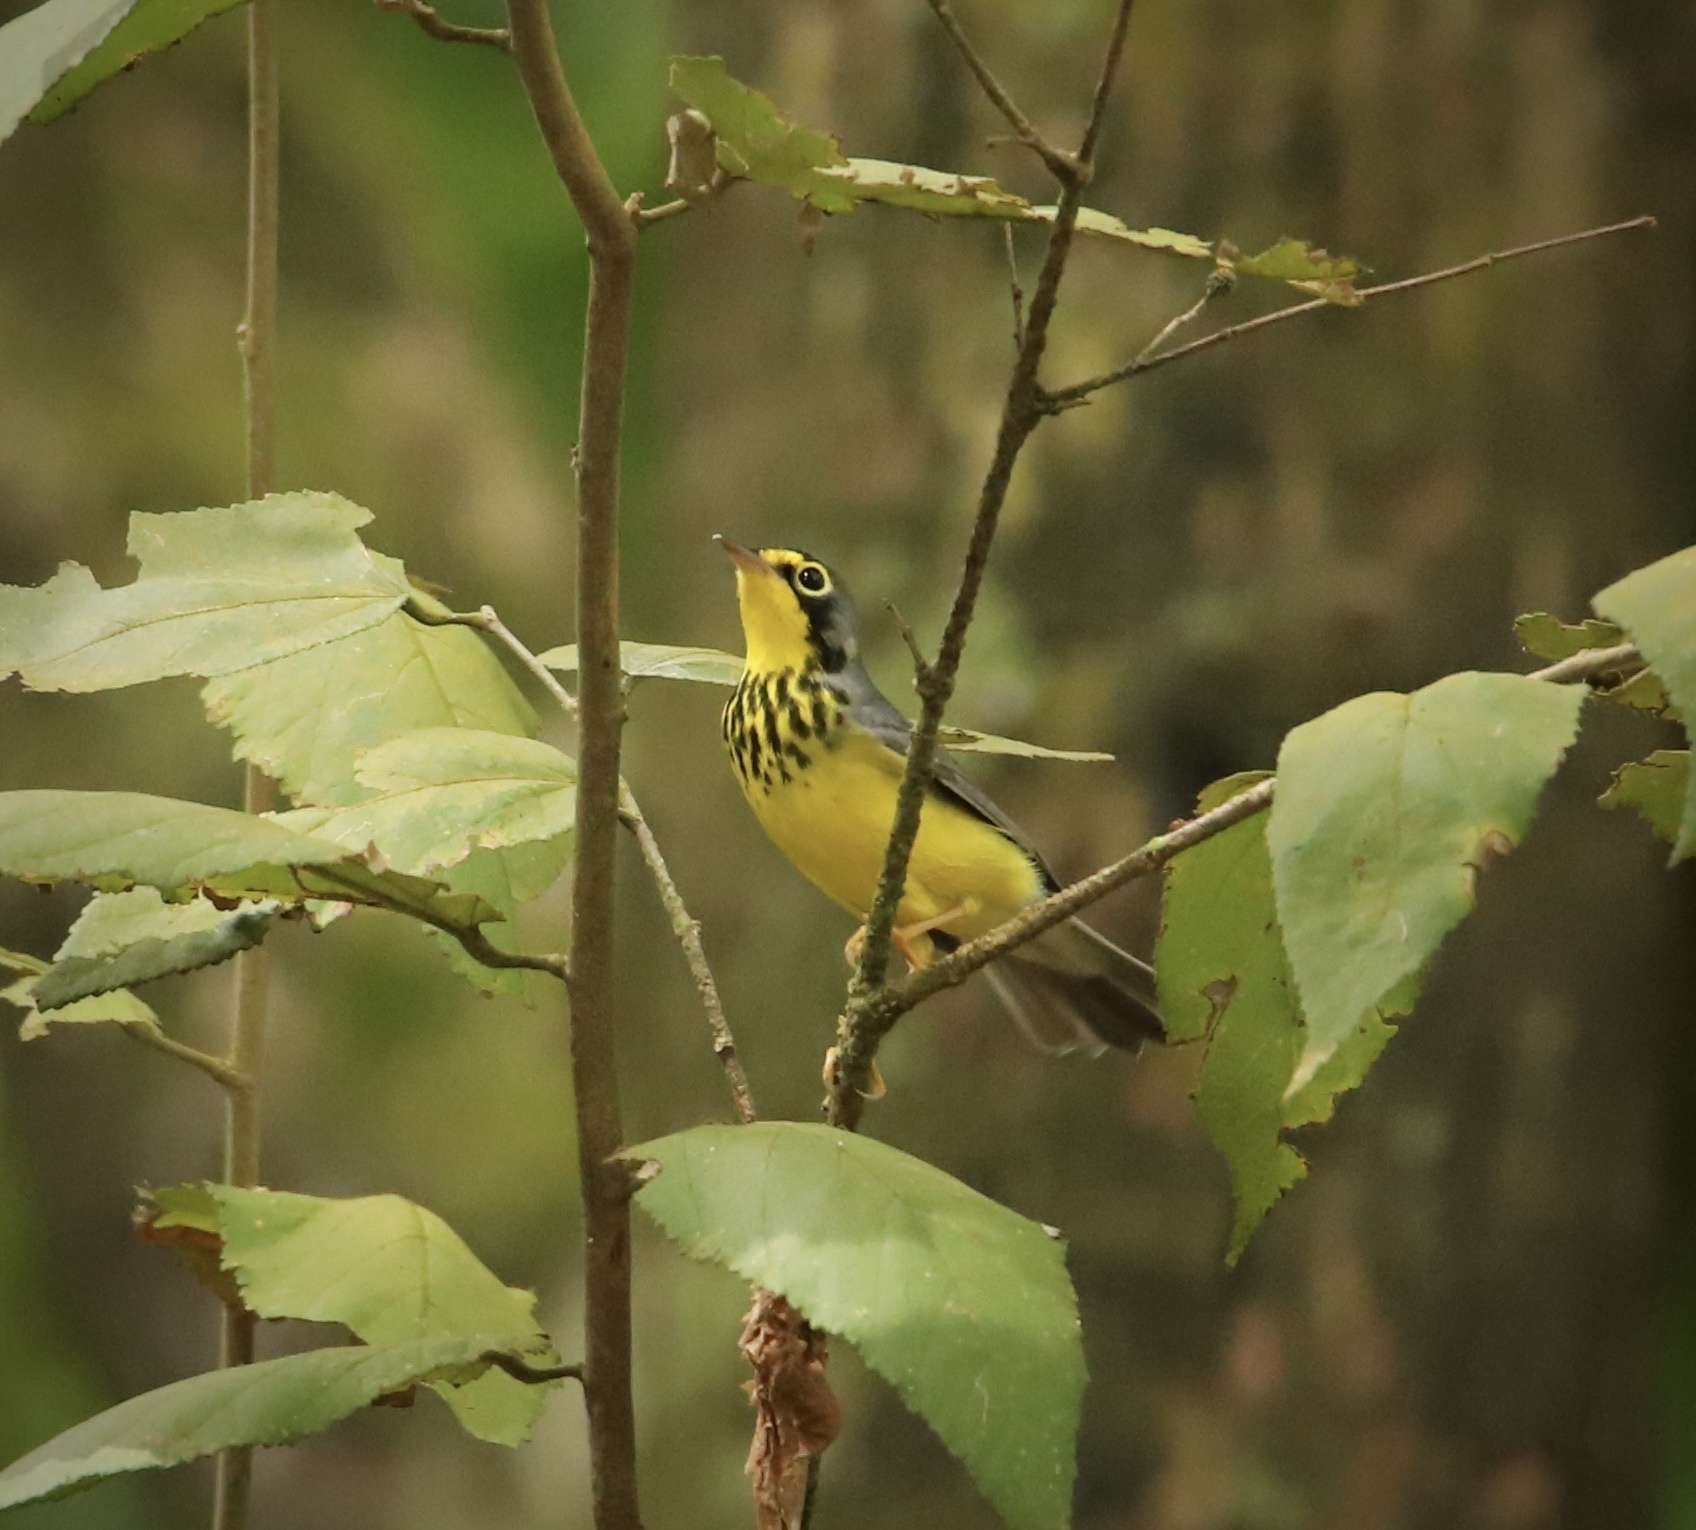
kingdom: Animalia
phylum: Chordata
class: Aves
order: Passeriformes
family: Parulidae
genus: Cardellina
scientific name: Cardellina canadensis
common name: Canada warbler
